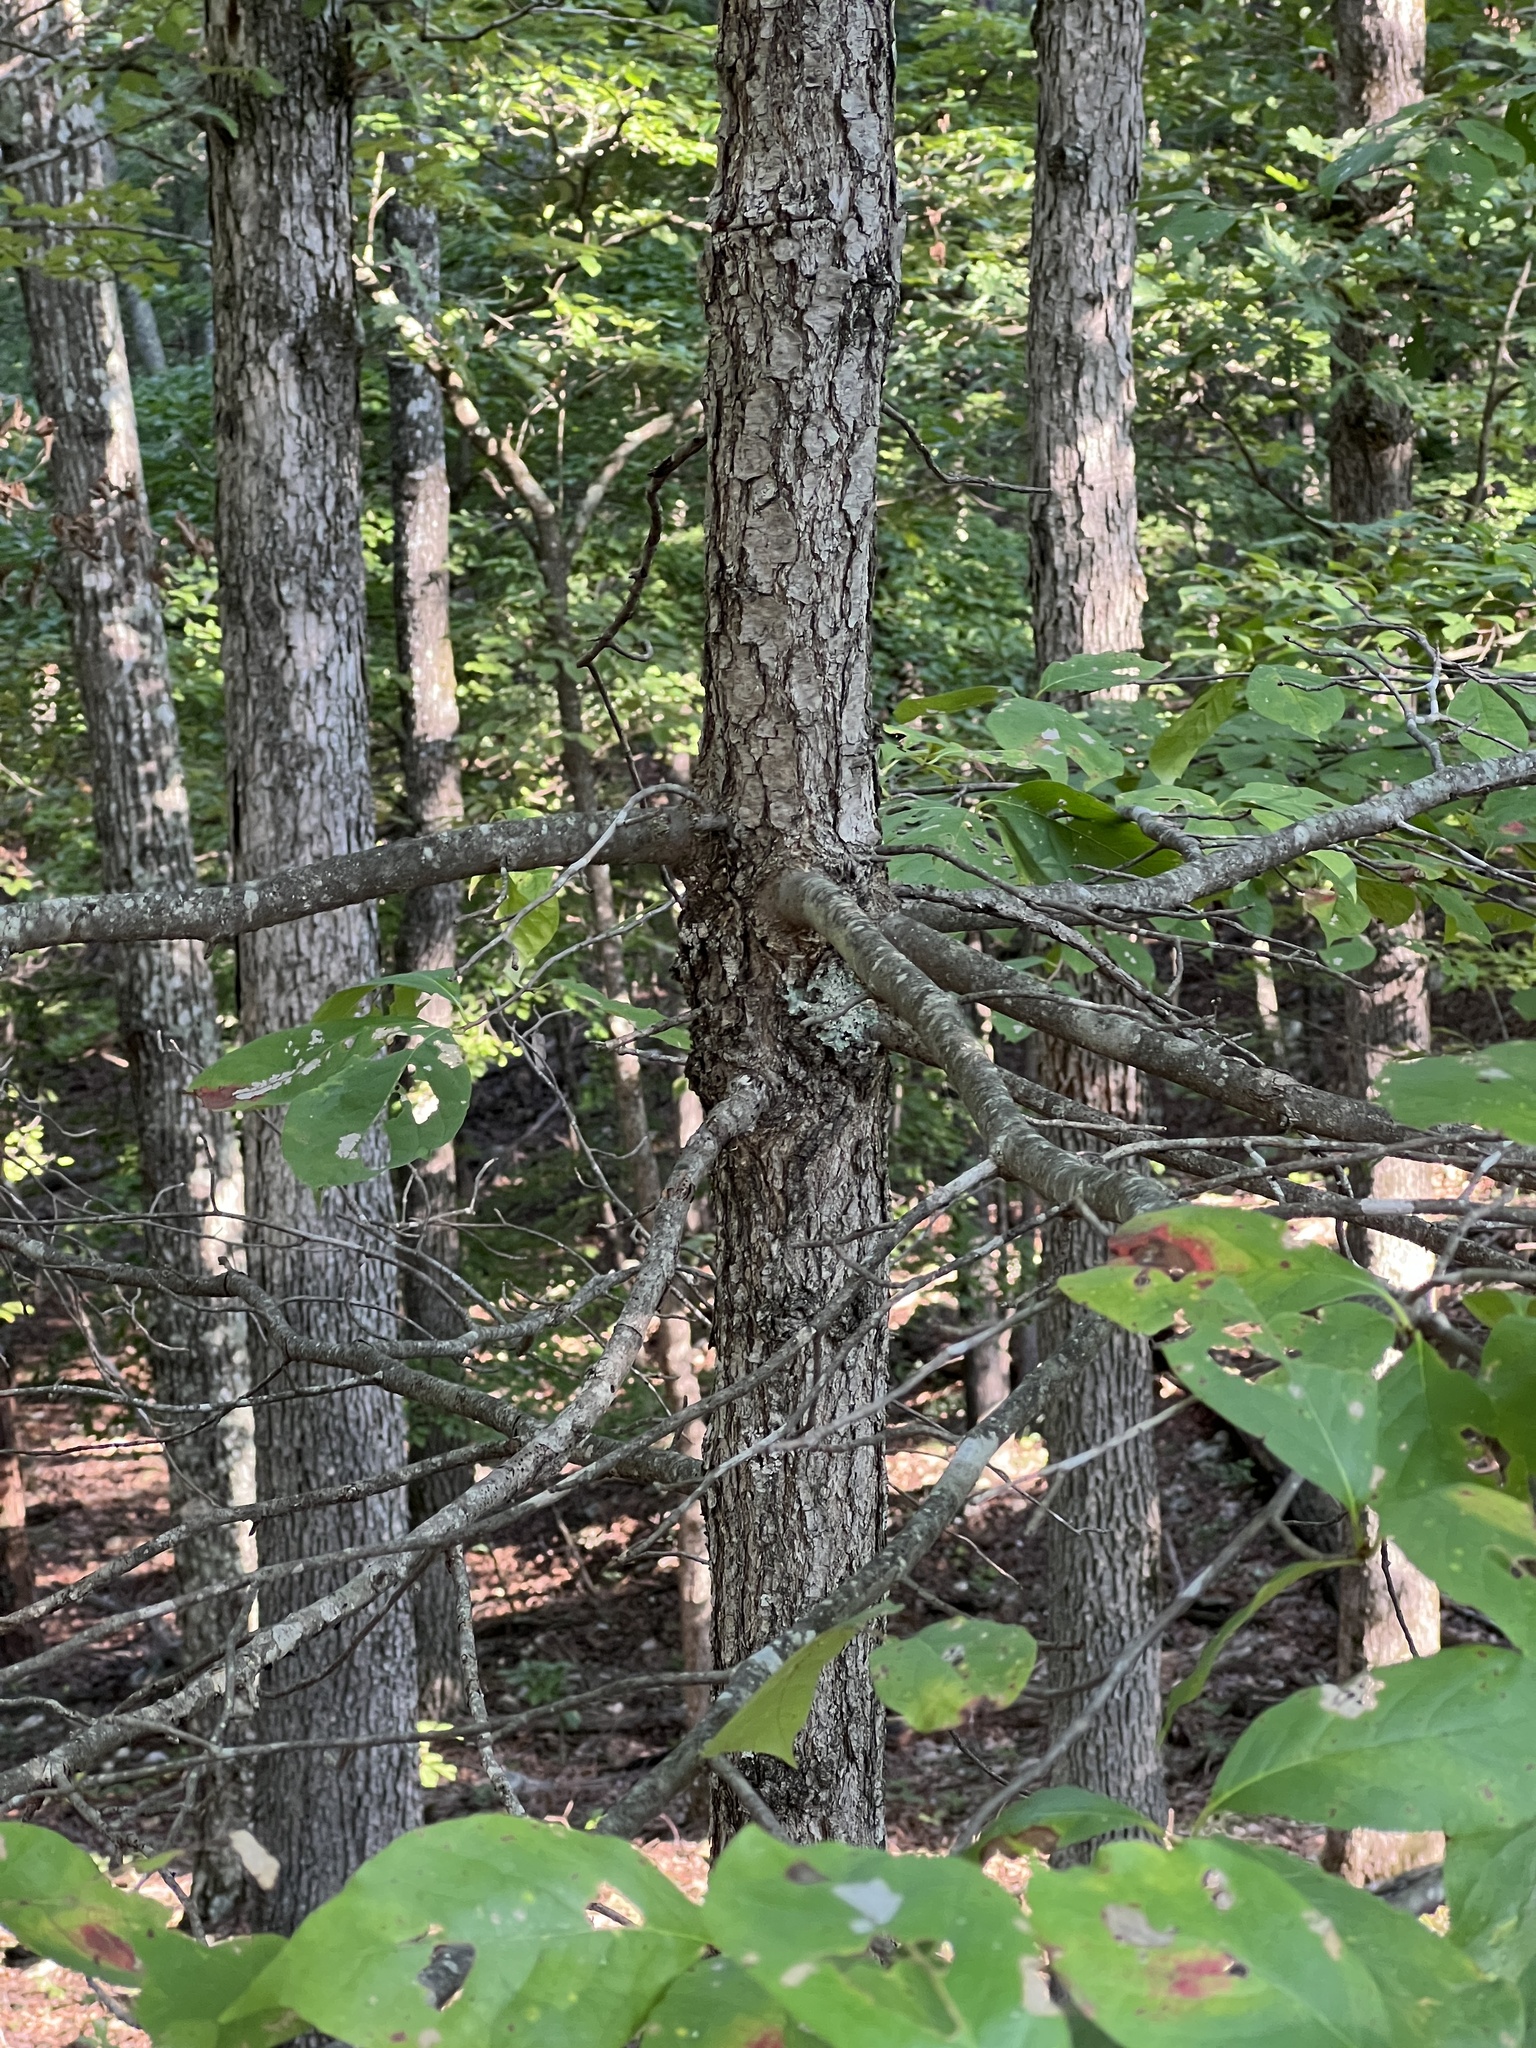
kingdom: Plantae
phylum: Tracheophyta
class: Magnoliopsida
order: Cornales
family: Nyssaceae
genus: Nyssa
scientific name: Nyssa sylvatica
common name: Black tupelo
